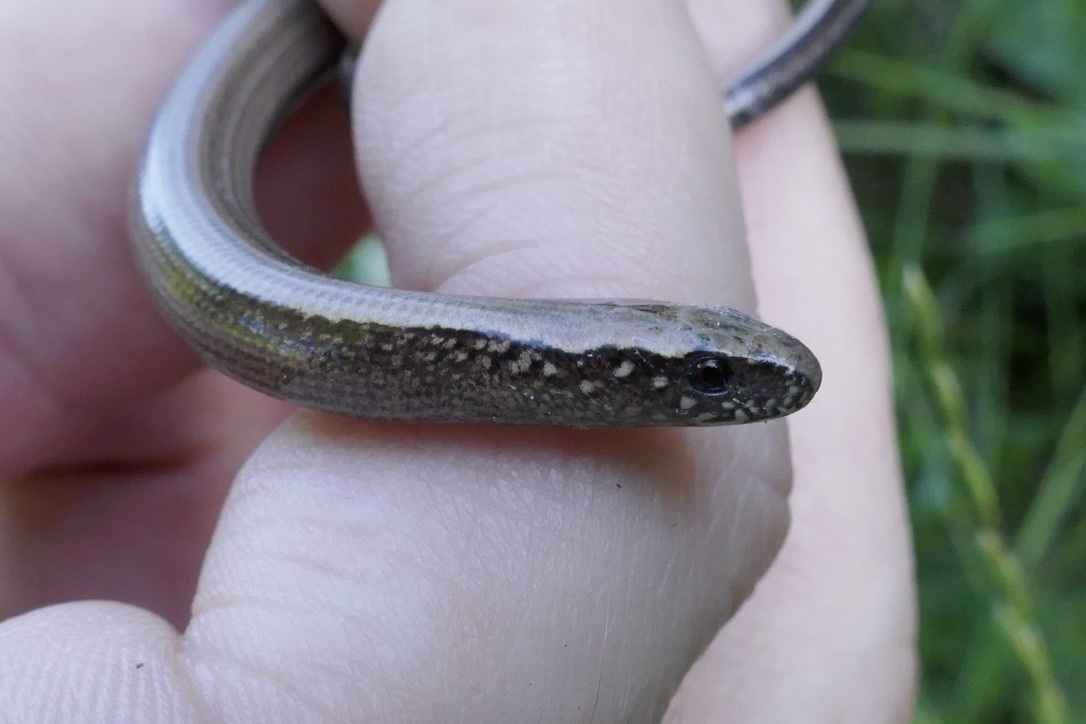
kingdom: Animalia
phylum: Chordata
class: Squamata
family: Anguidae
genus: Anguis
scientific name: Anguis fragilis
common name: Slow worm
